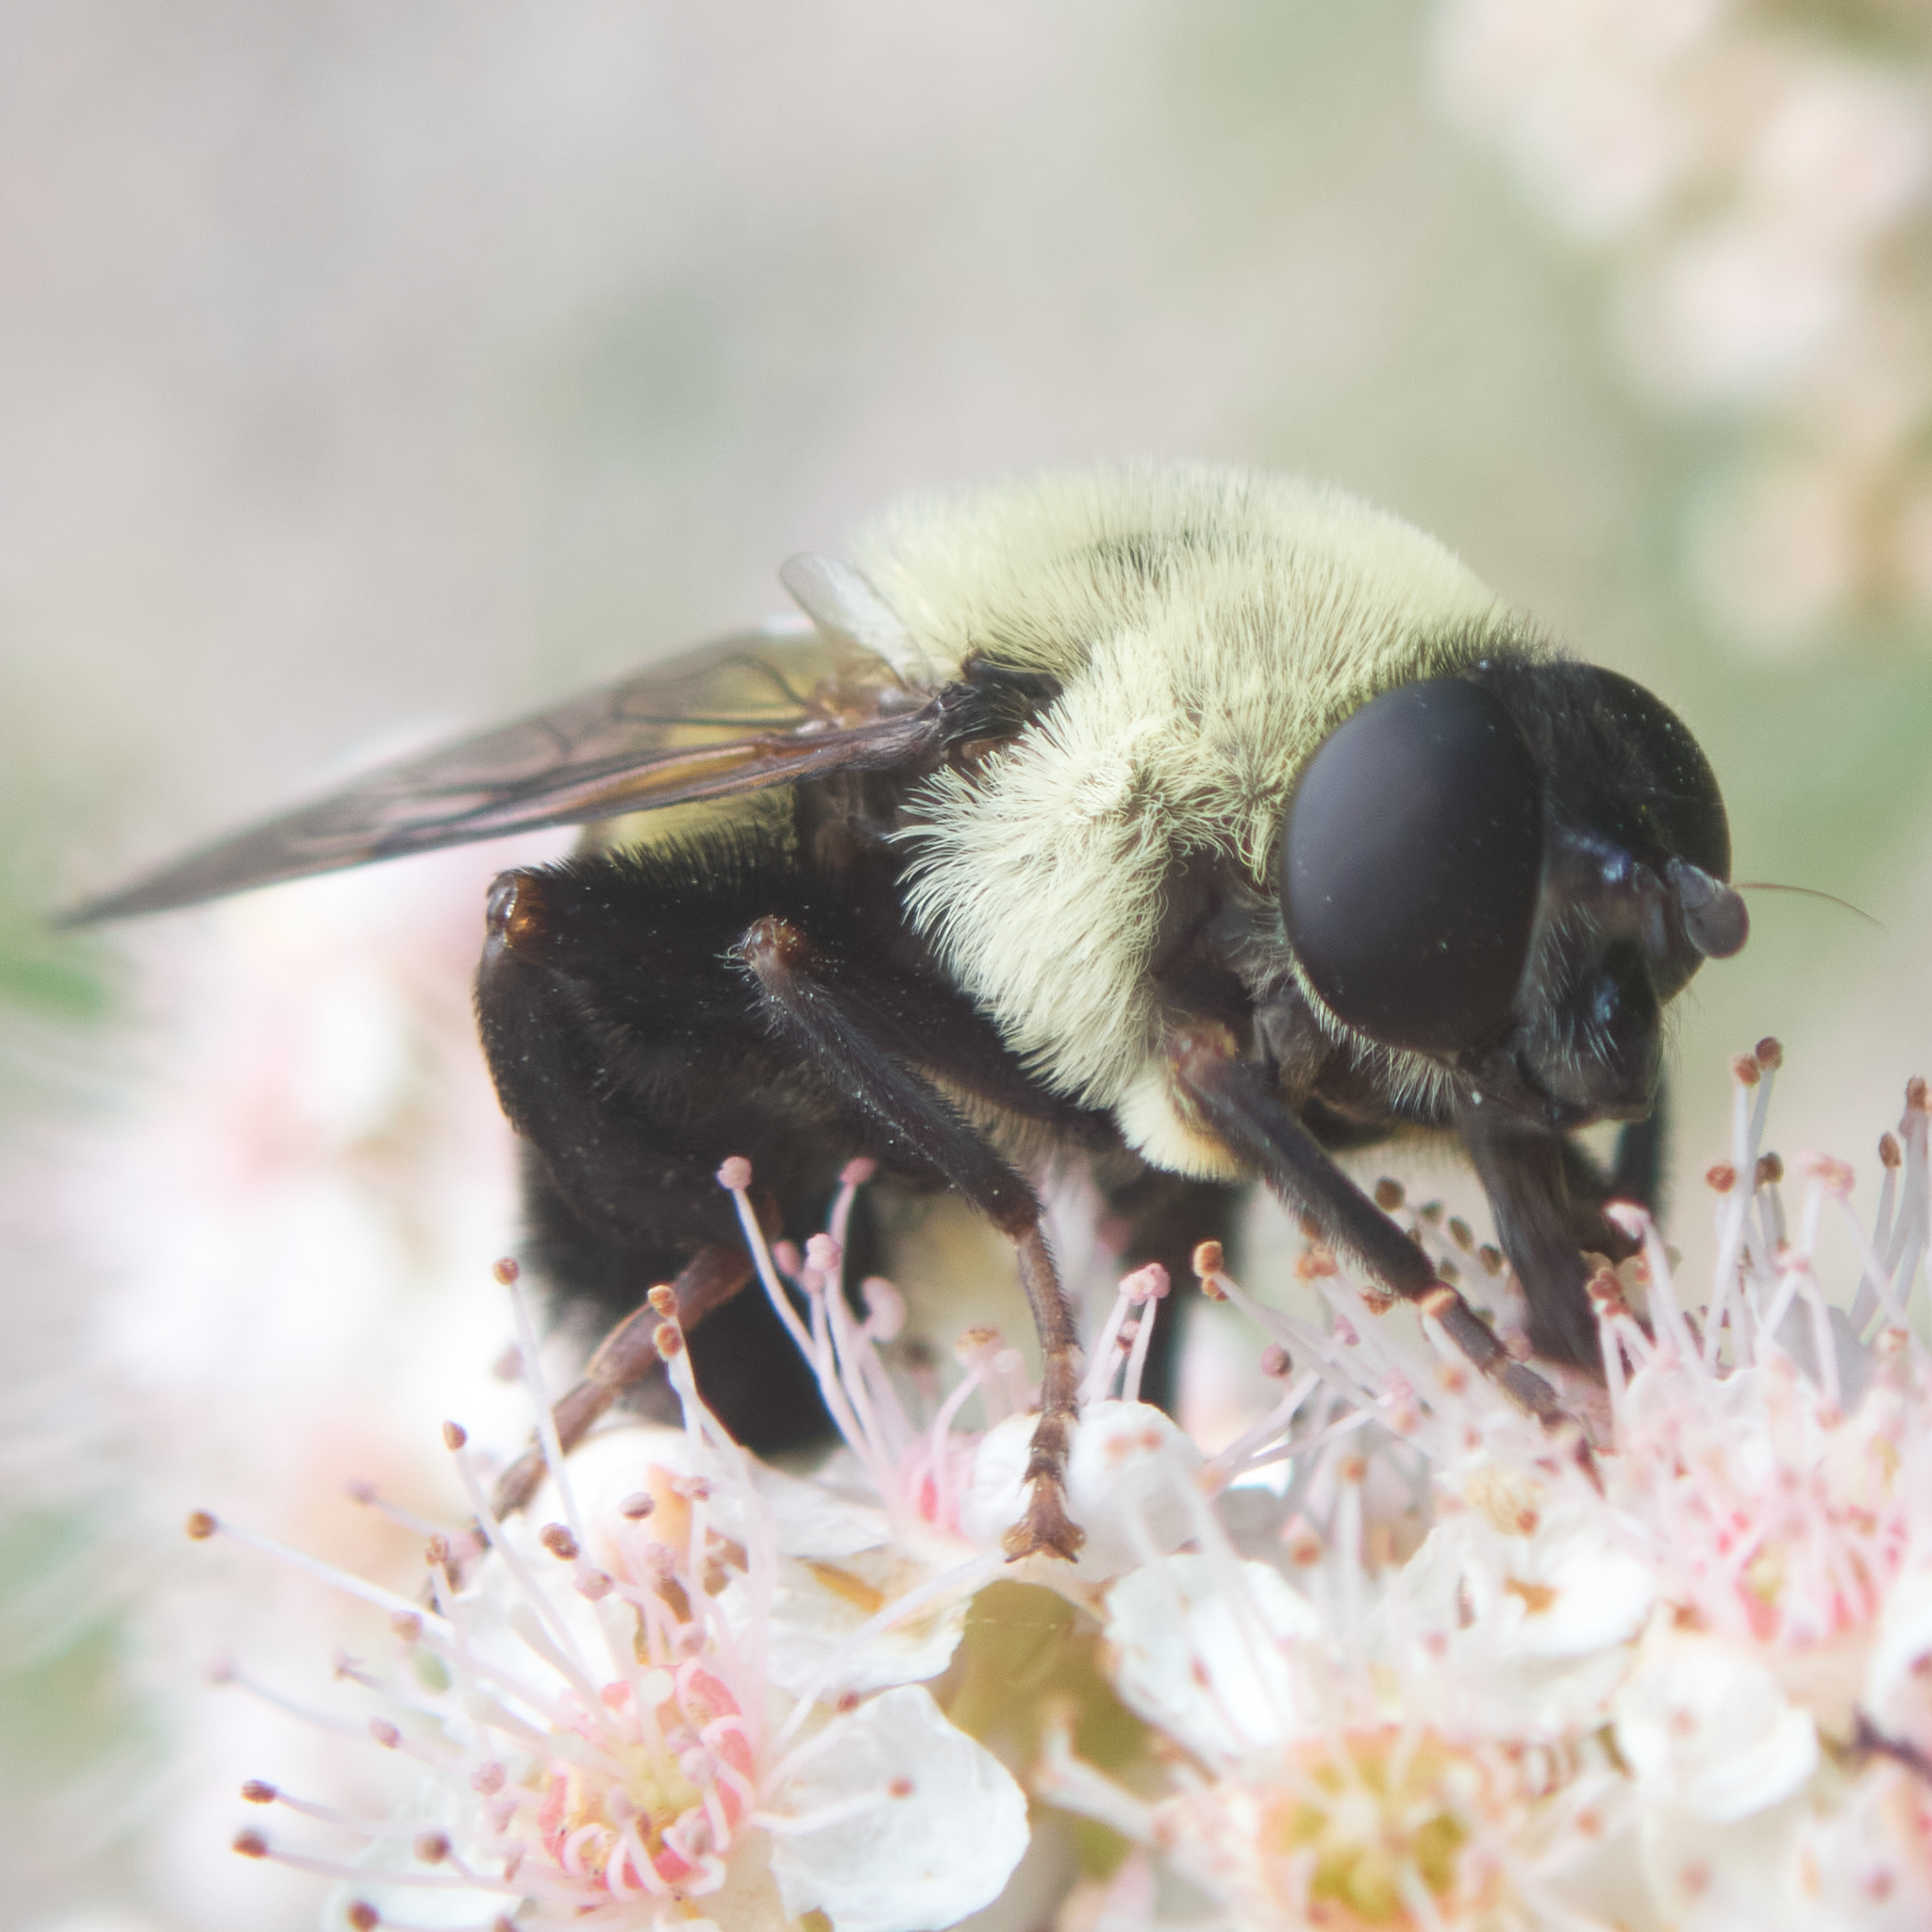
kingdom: Animalia
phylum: Arthropoda
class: Insecta
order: Diptera
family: Syrphidae
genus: Imatisma
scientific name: Imatisma posticata
